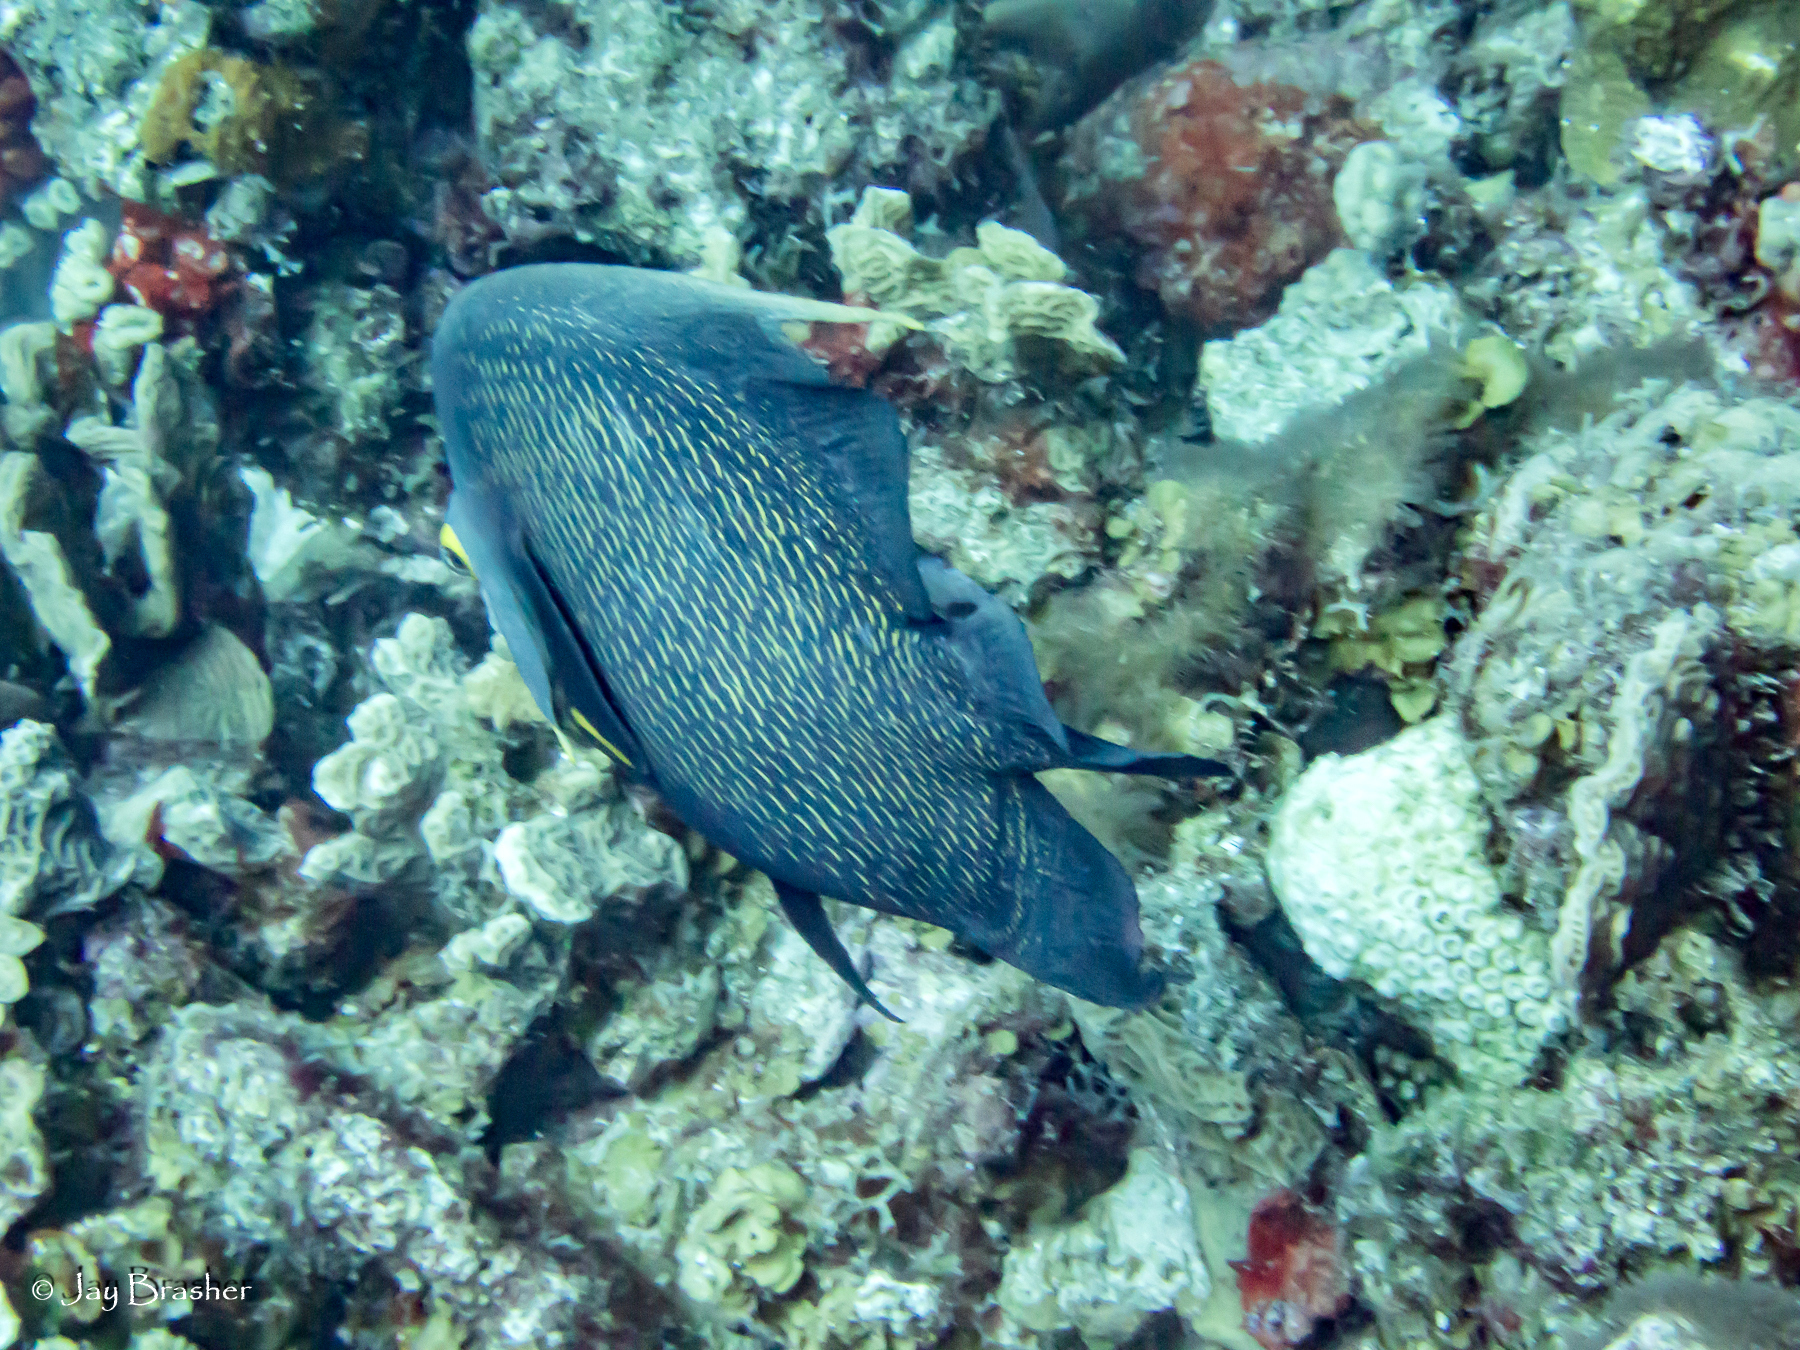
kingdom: Animalia
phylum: Chordata
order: Perciformes
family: Pomacanthidae
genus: Pomacanthus
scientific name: Pomacanthus paru
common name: French angelfish
